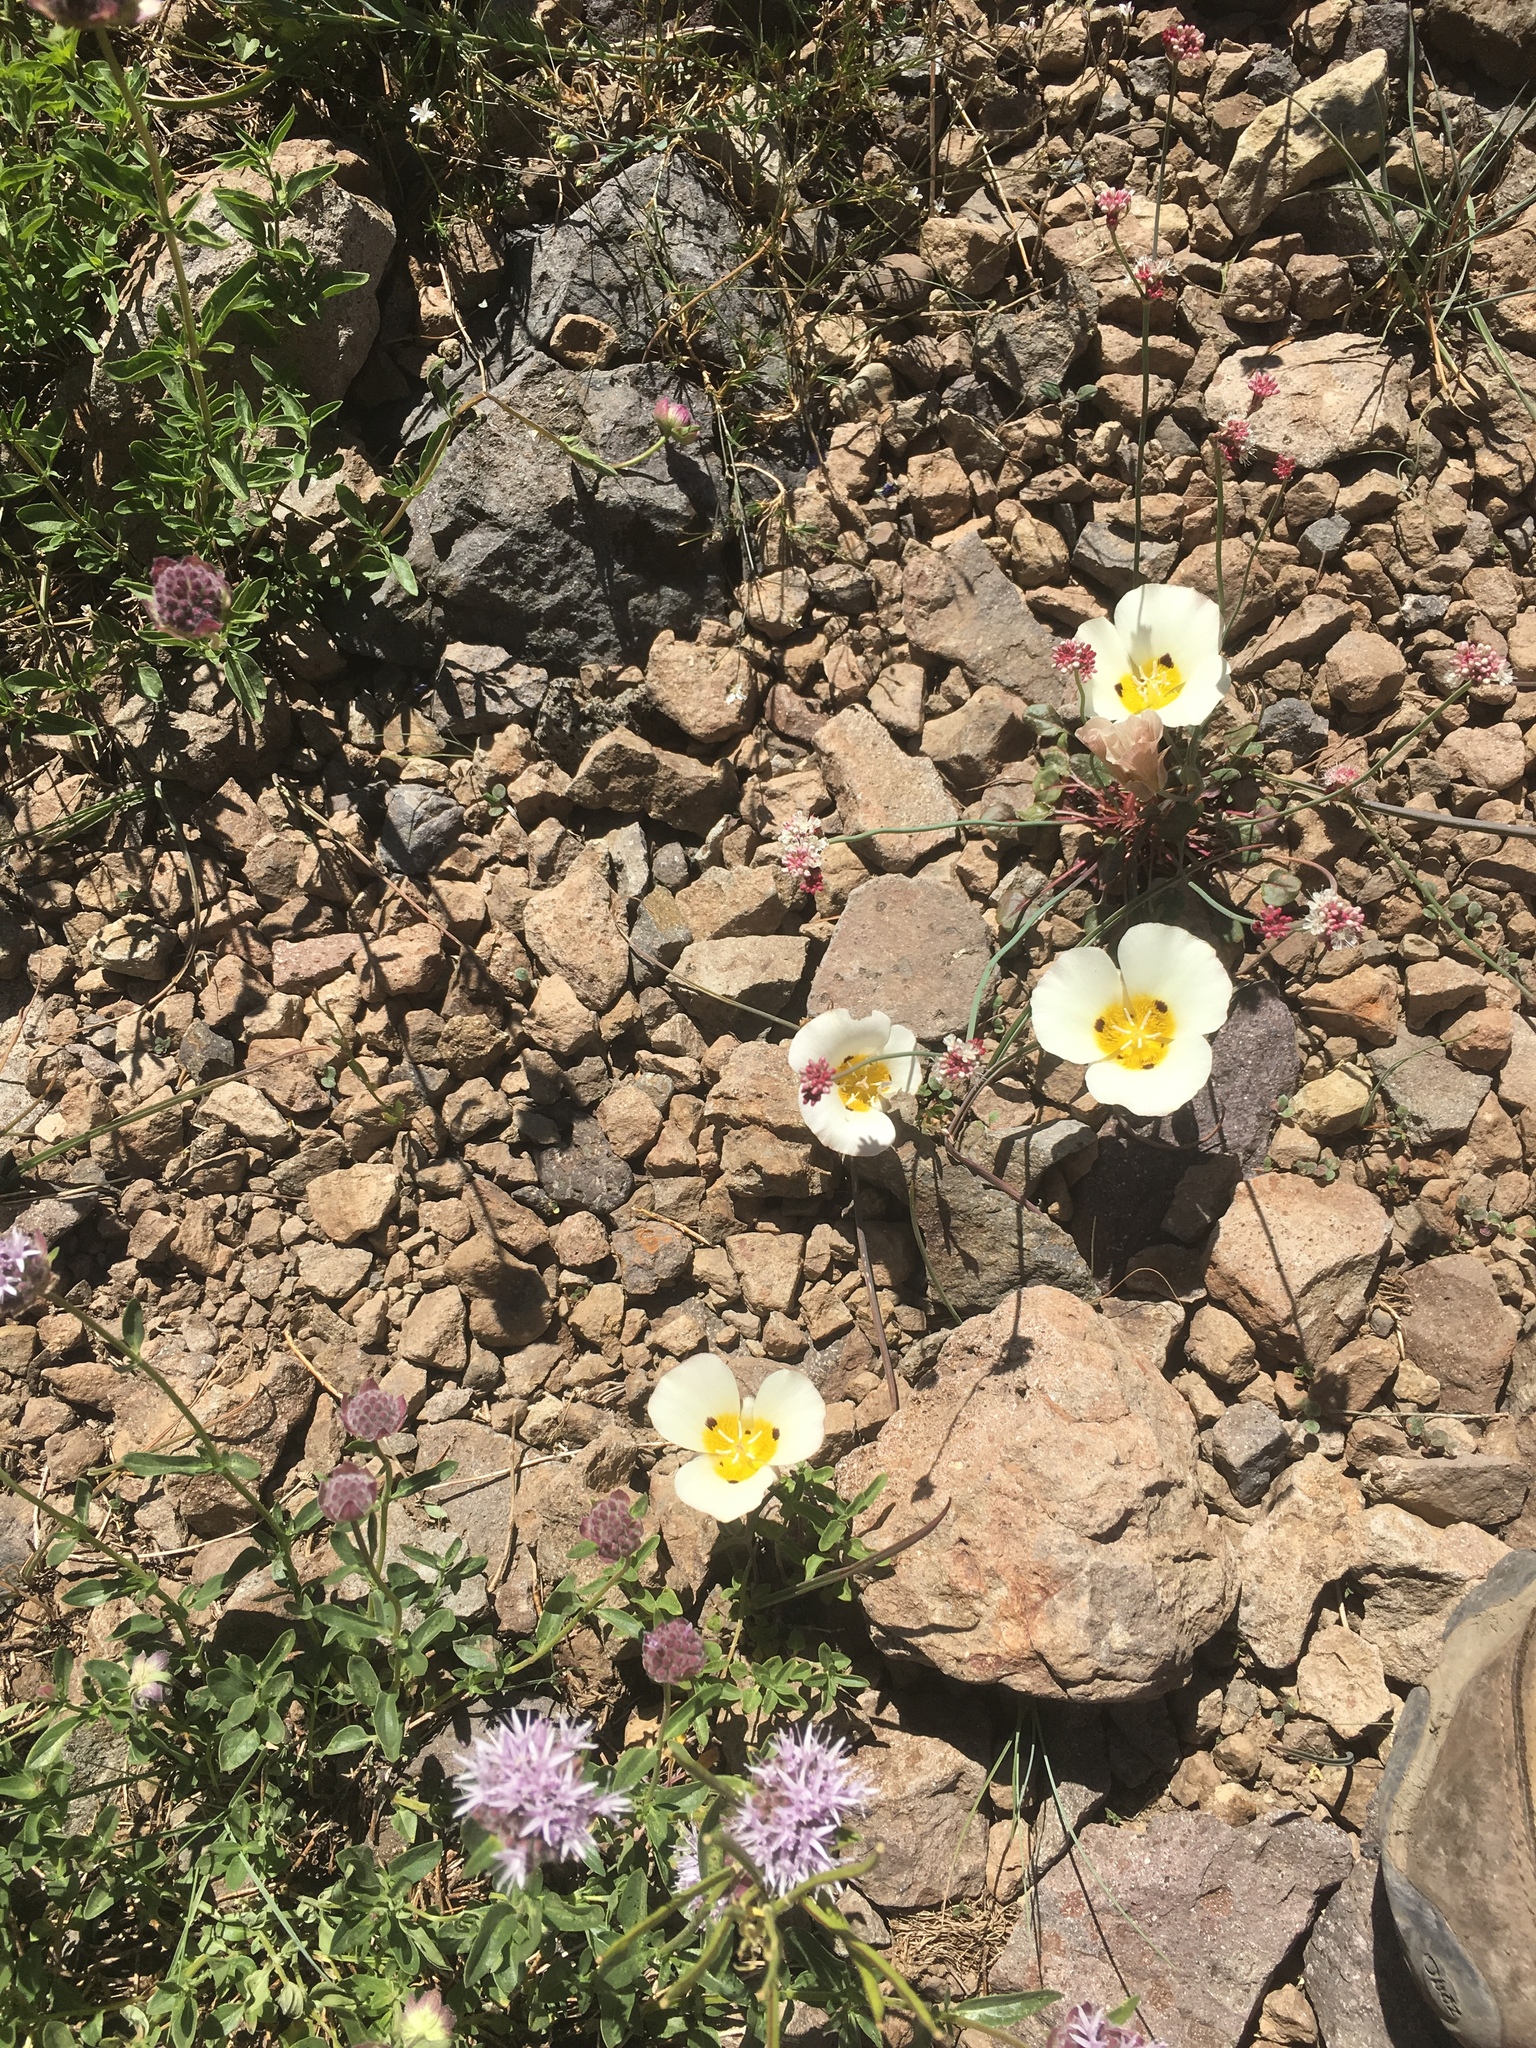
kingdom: Plantae
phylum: Tracheophyta
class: Liliopsida
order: Liliales
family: Liliaceae
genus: Calochortus
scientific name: Calochortus leichtlinii
